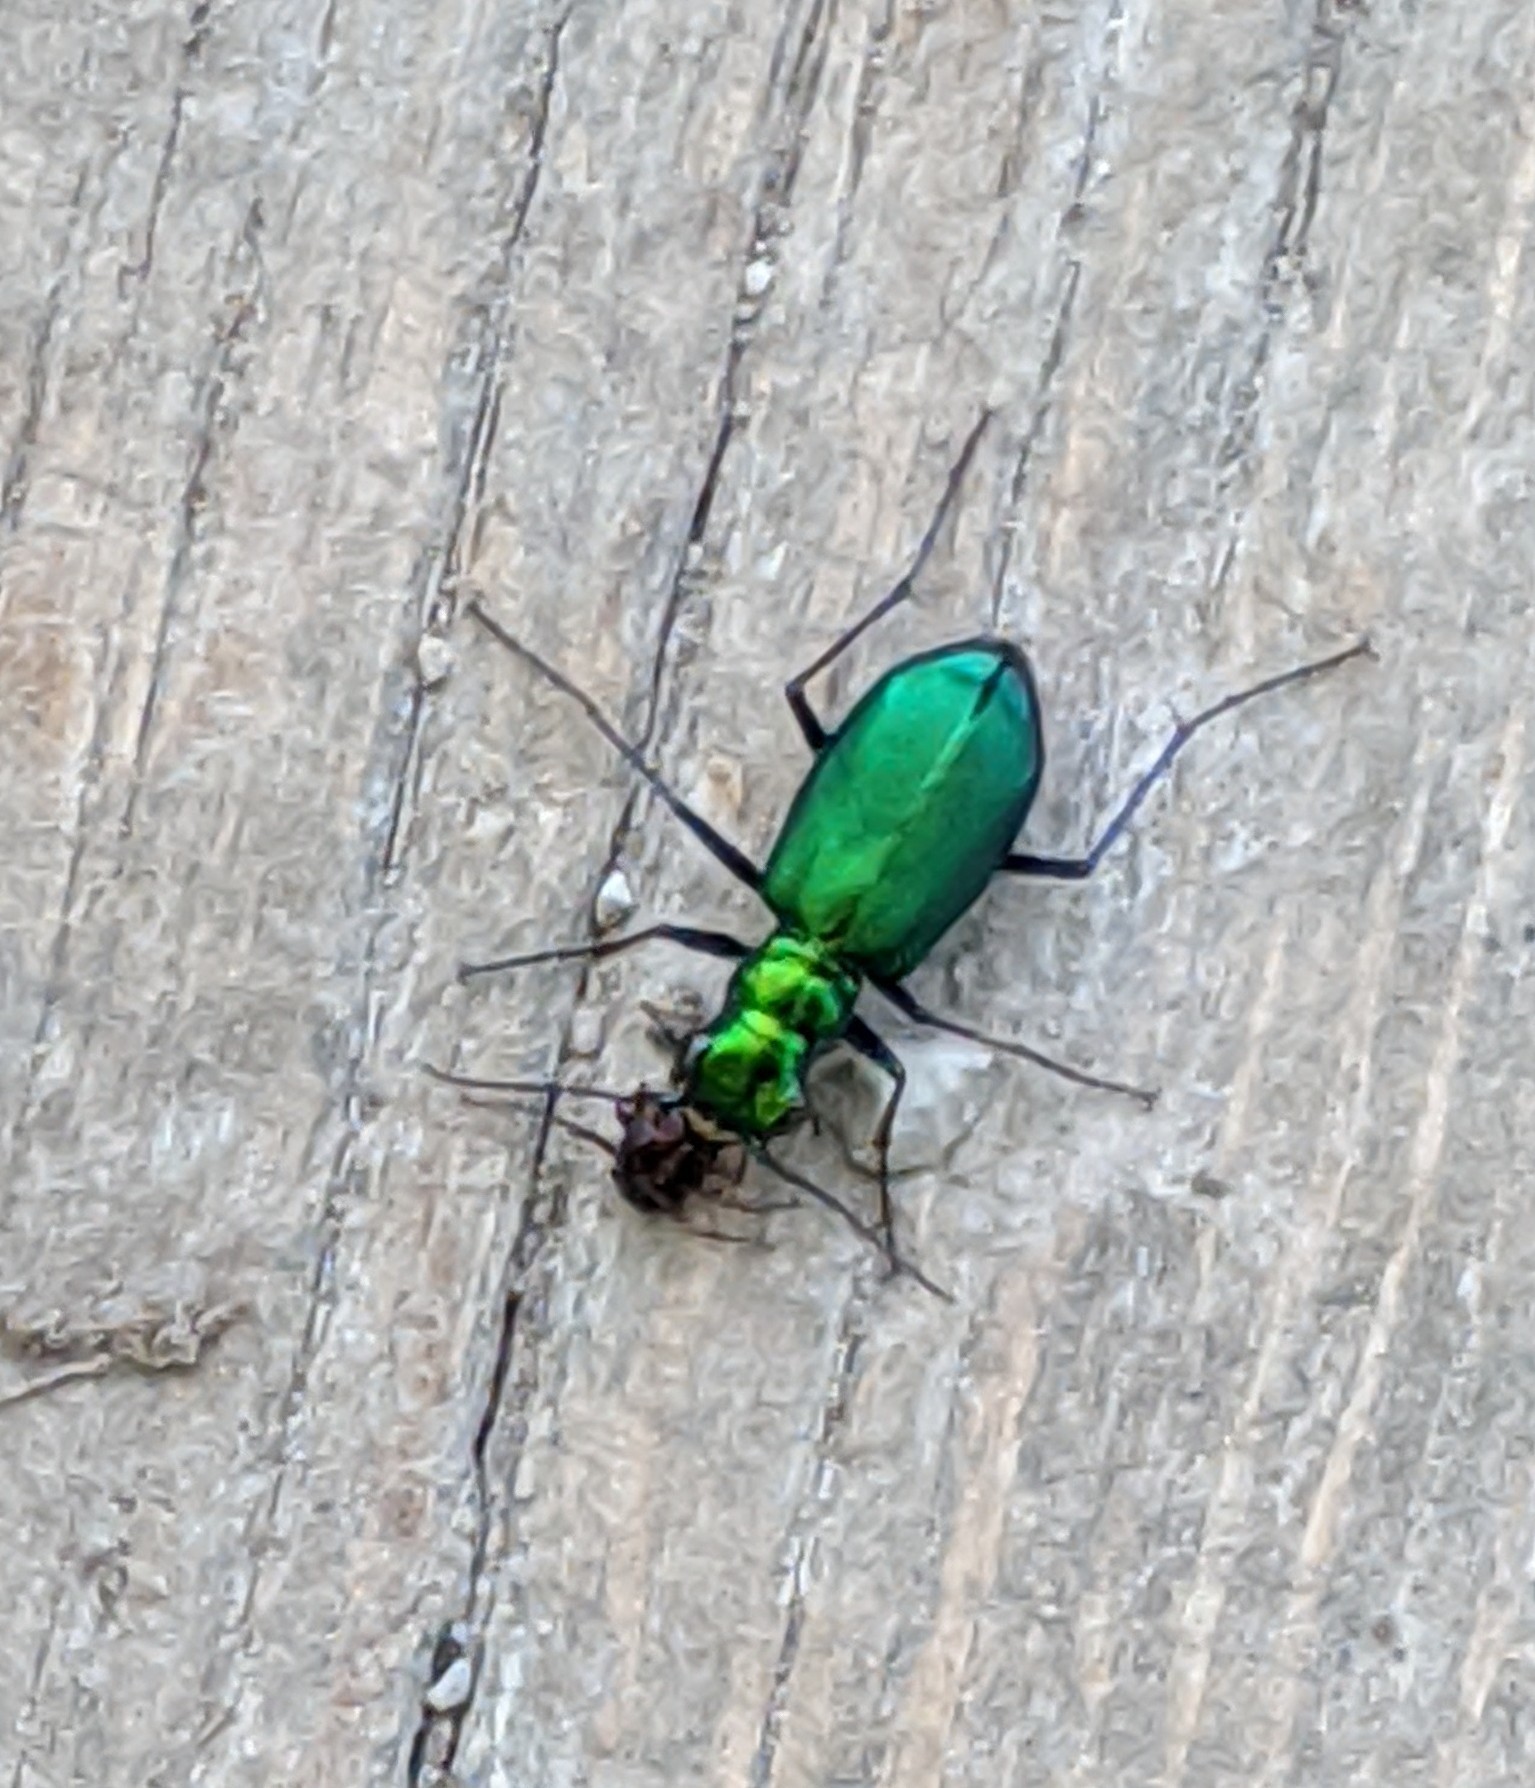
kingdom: Animalia
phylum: Arthropoda
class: Insecta
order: Coleoptera
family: Carabidae
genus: Cicindela
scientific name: Cicindela sexguttata
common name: Six-spotted tiger beetle
